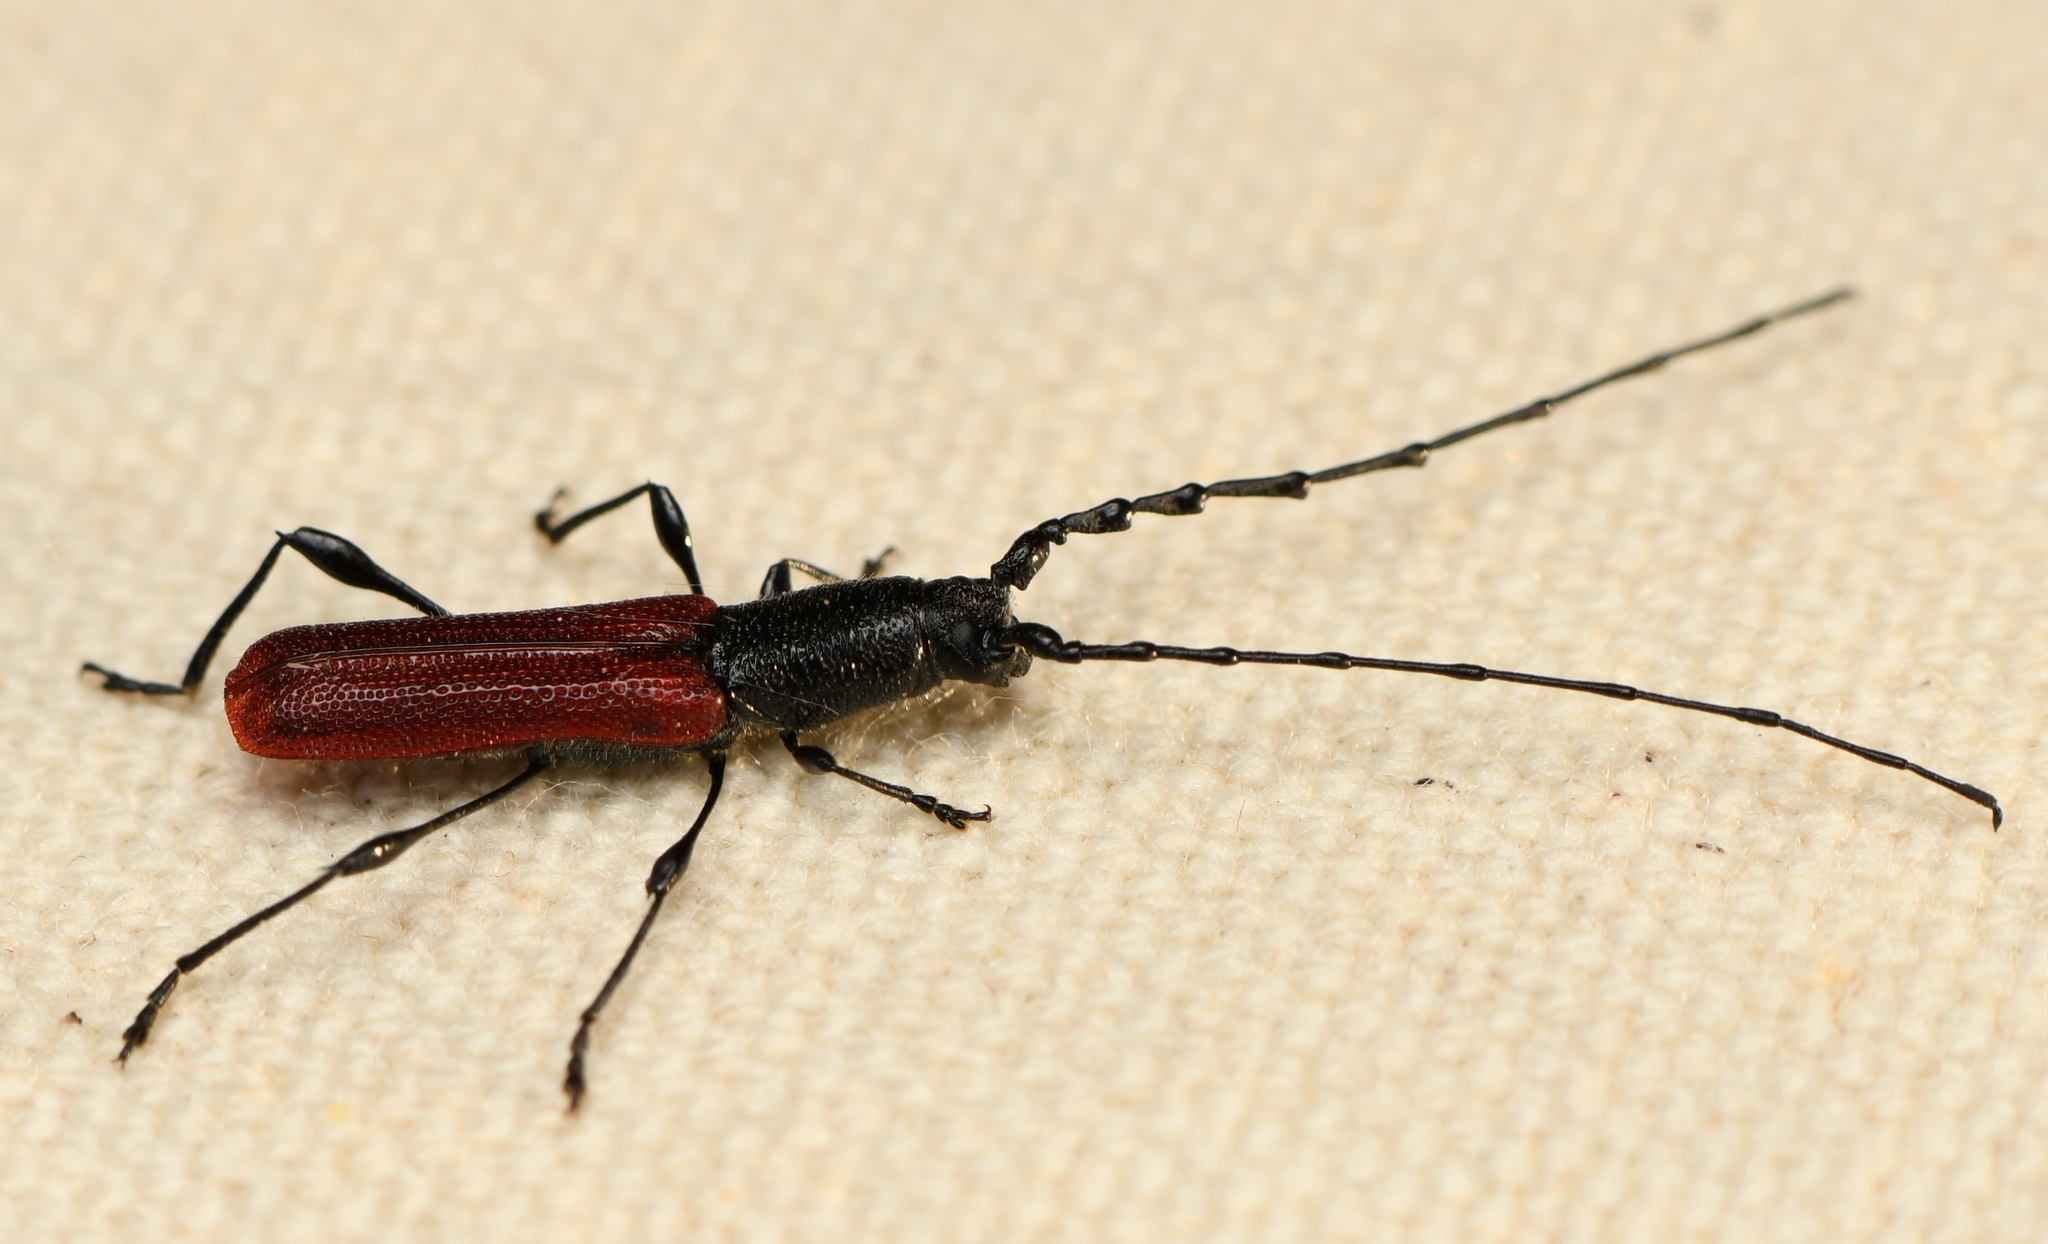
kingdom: Animalia
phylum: Arthropoda
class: Insecta
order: Coleoptera
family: Cerambycidae
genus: Ancylocera
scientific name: Ancylocera bicolor
